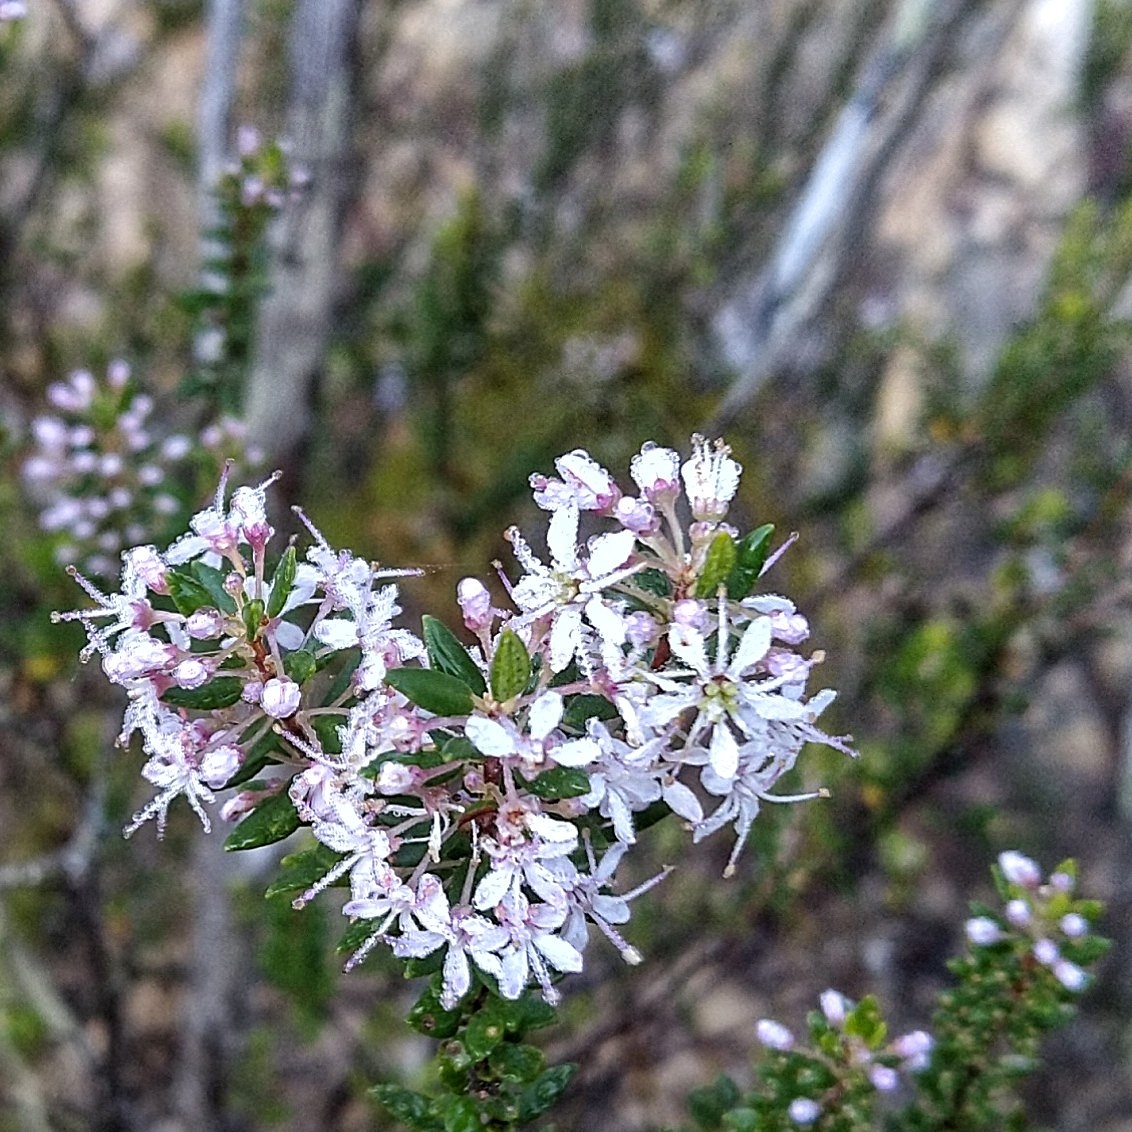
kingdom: Plantae
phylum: Tracheophyta
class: Magnoliopsida
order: Sapindales
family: Rutaceae
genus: Agathosma
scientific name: Agathosma ovata
